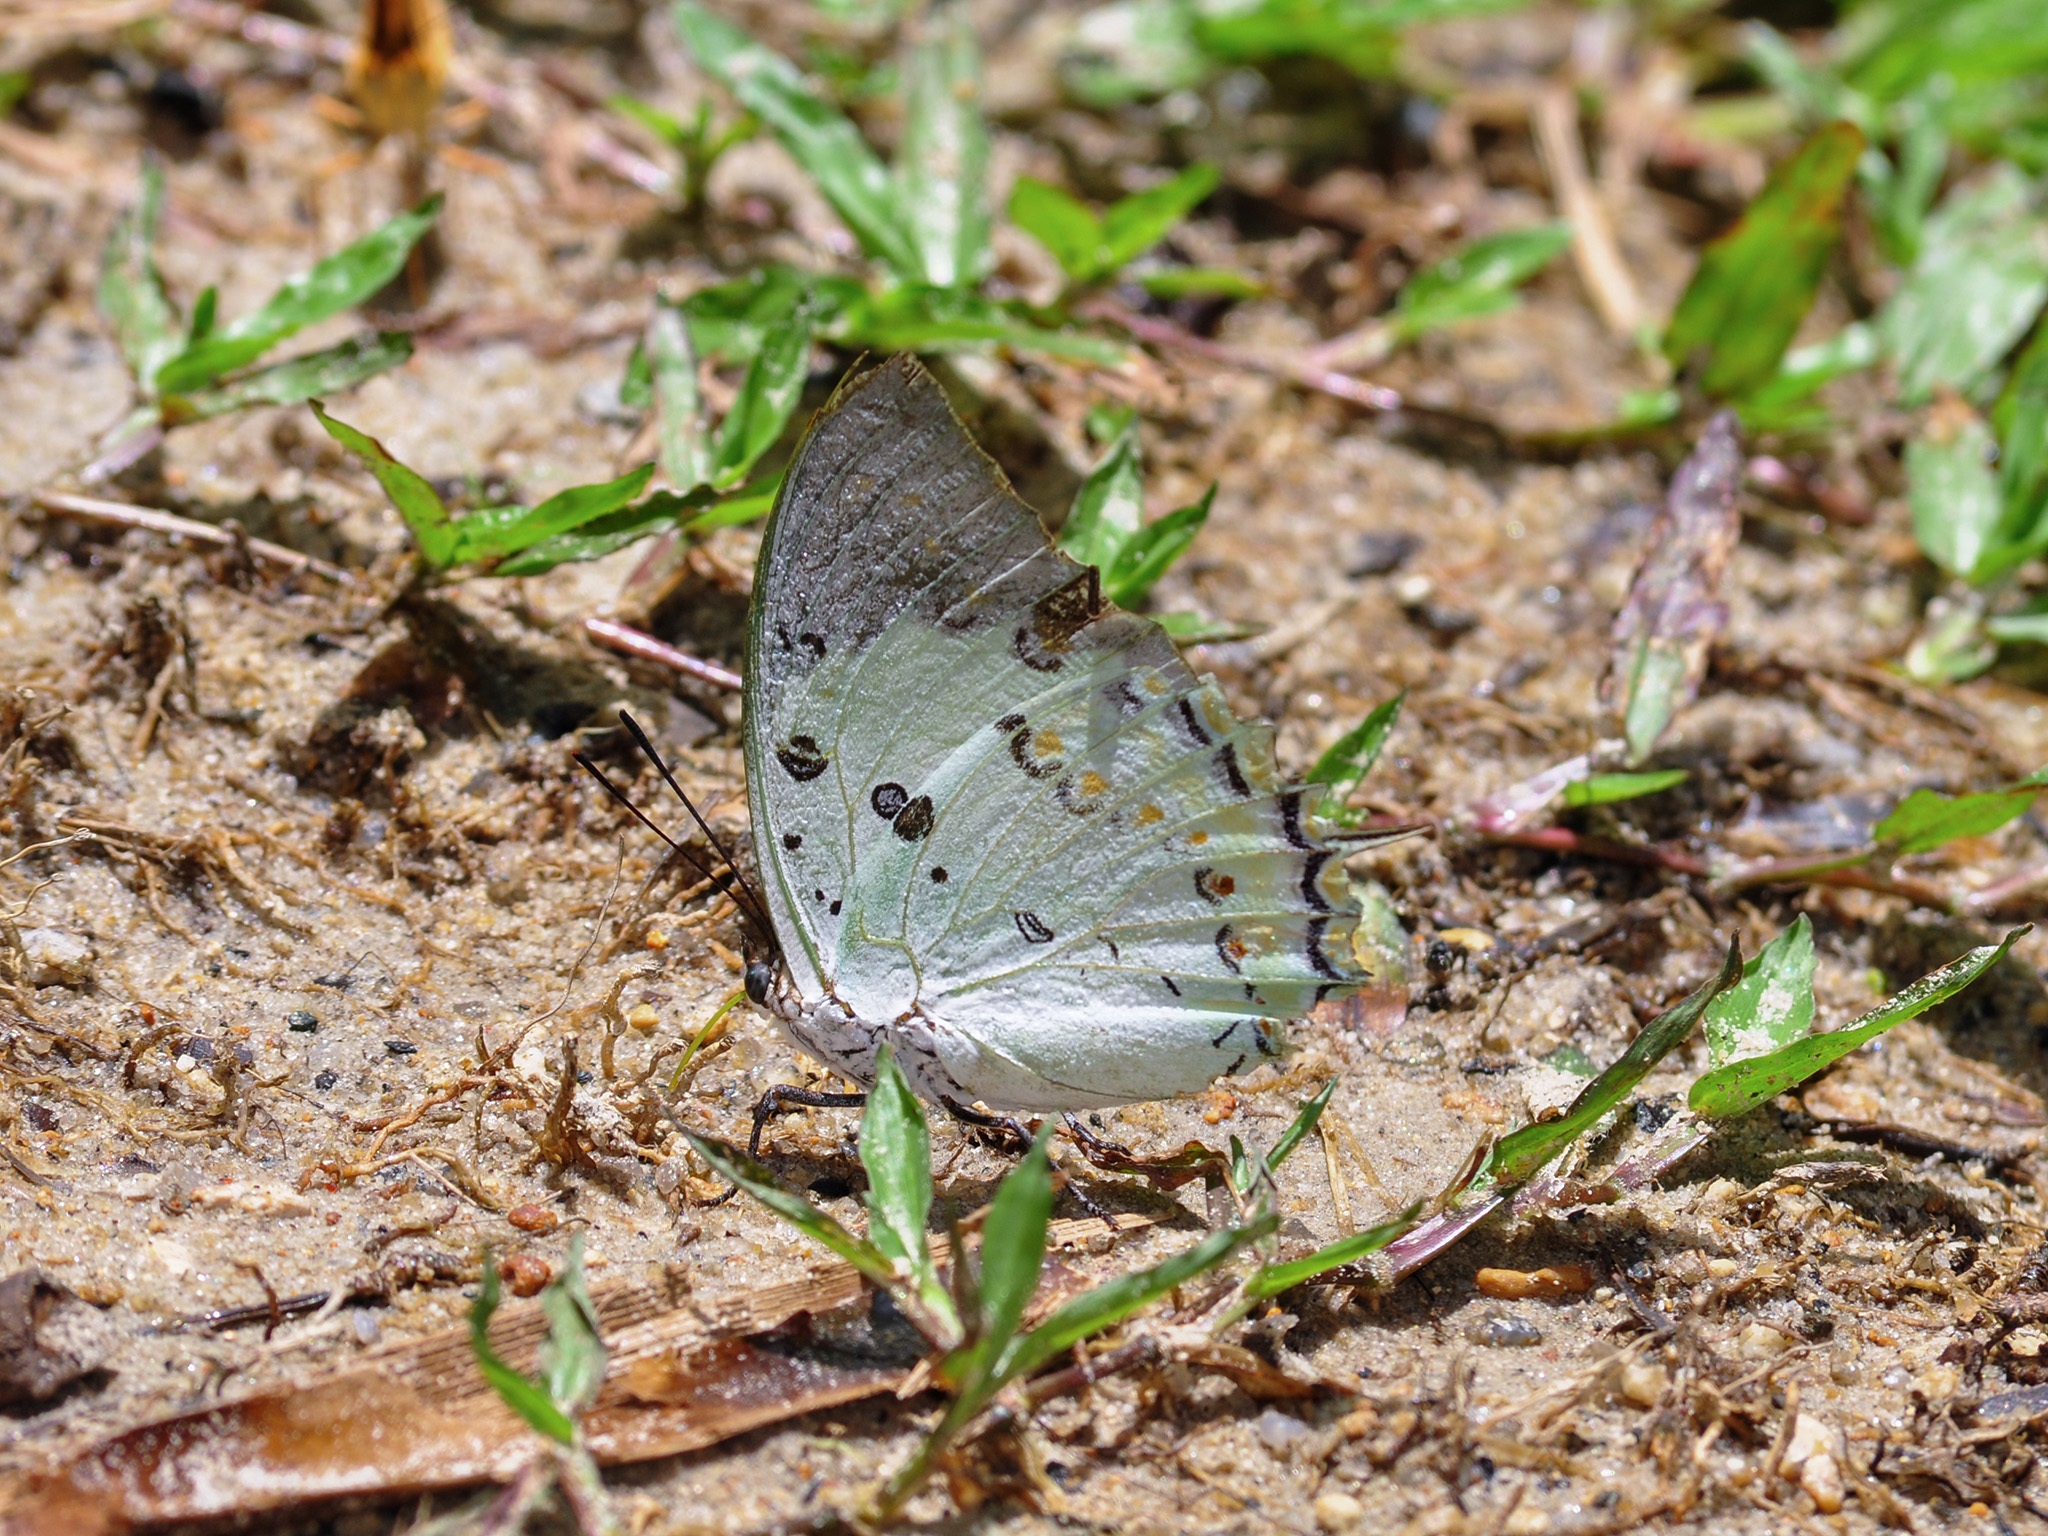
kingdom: Animalia
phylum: Arthropoda
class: Insecta
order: Lepidoptera
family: Nymphalidae
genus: Polyura
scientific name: Polyura delphis
